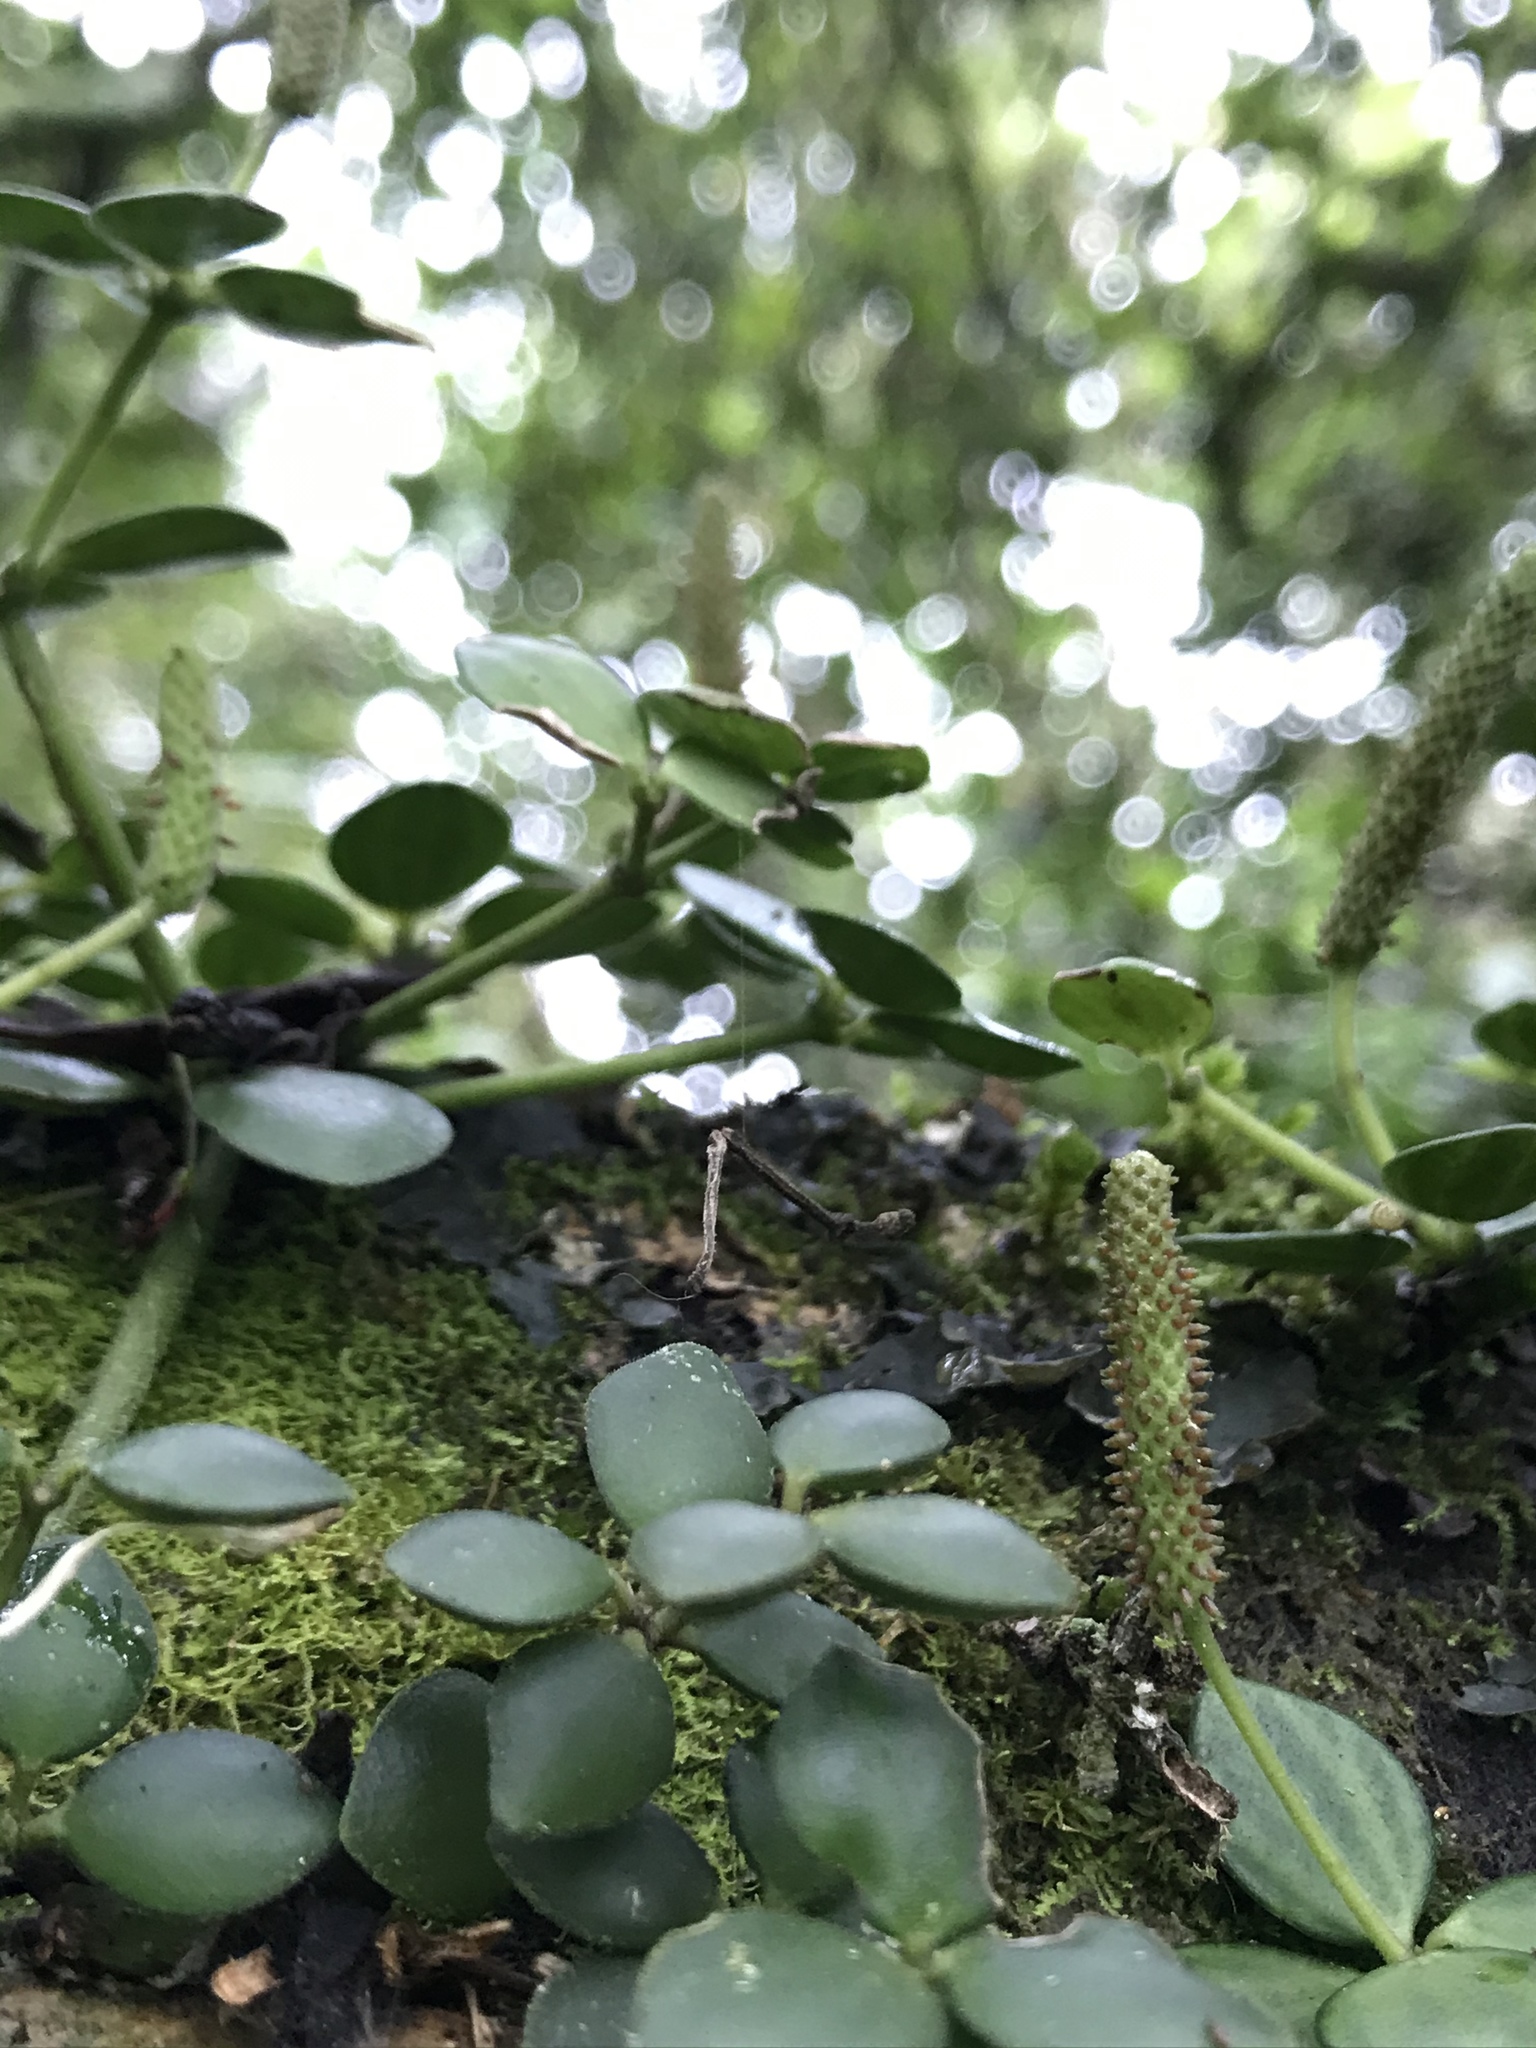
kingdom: Plantae
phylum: Tracheophyta
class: Magnoliopsida
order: Piperales
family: Piperaceae
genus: Peperomia
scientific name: Peperomia tetraphylla
